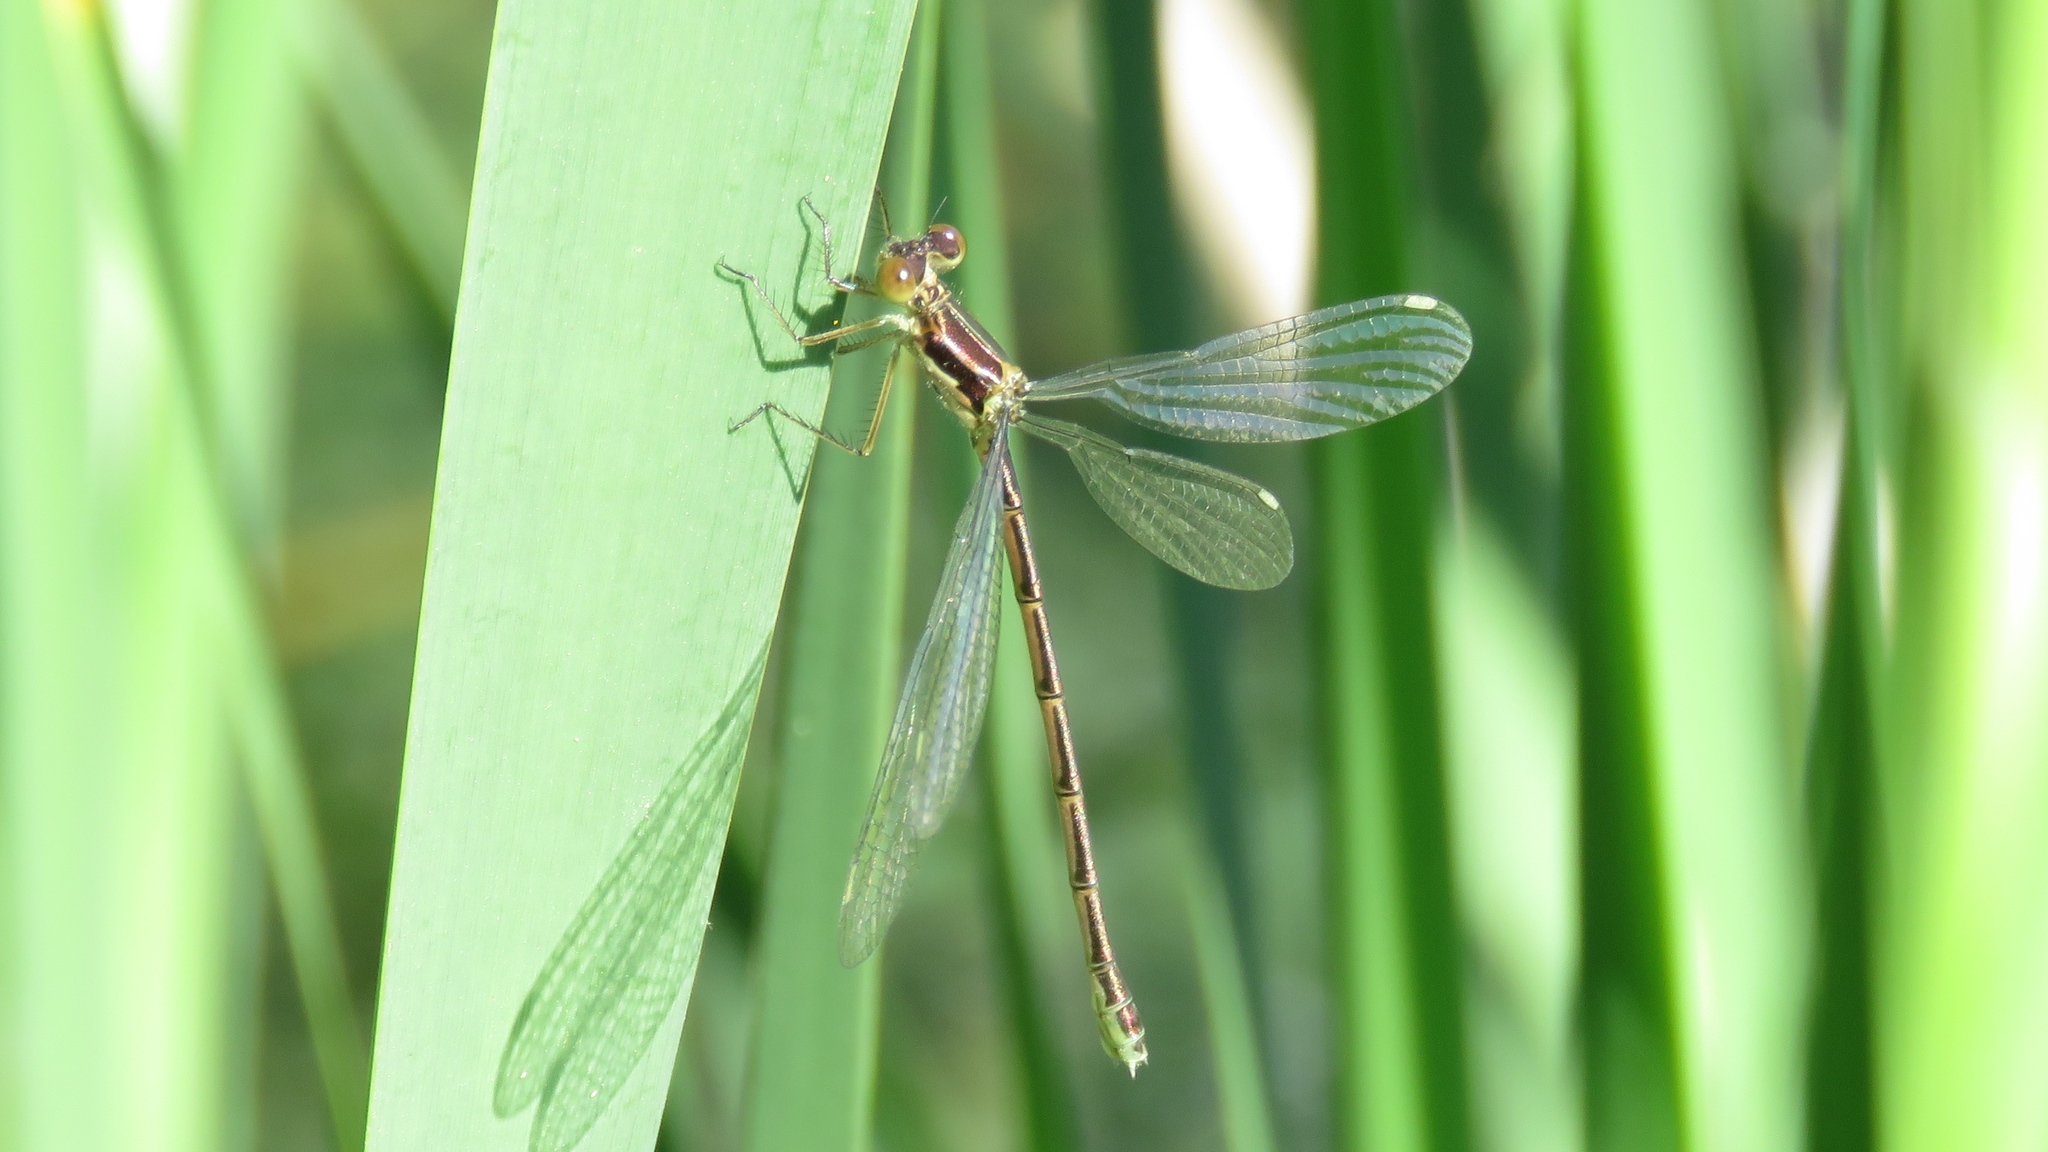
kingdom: Animalia
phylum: Arthropoda
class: Insecta
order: Odonata
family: Lestidae
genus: Lestes
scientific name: Lestes disjunctus
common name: Northern spreadwing
